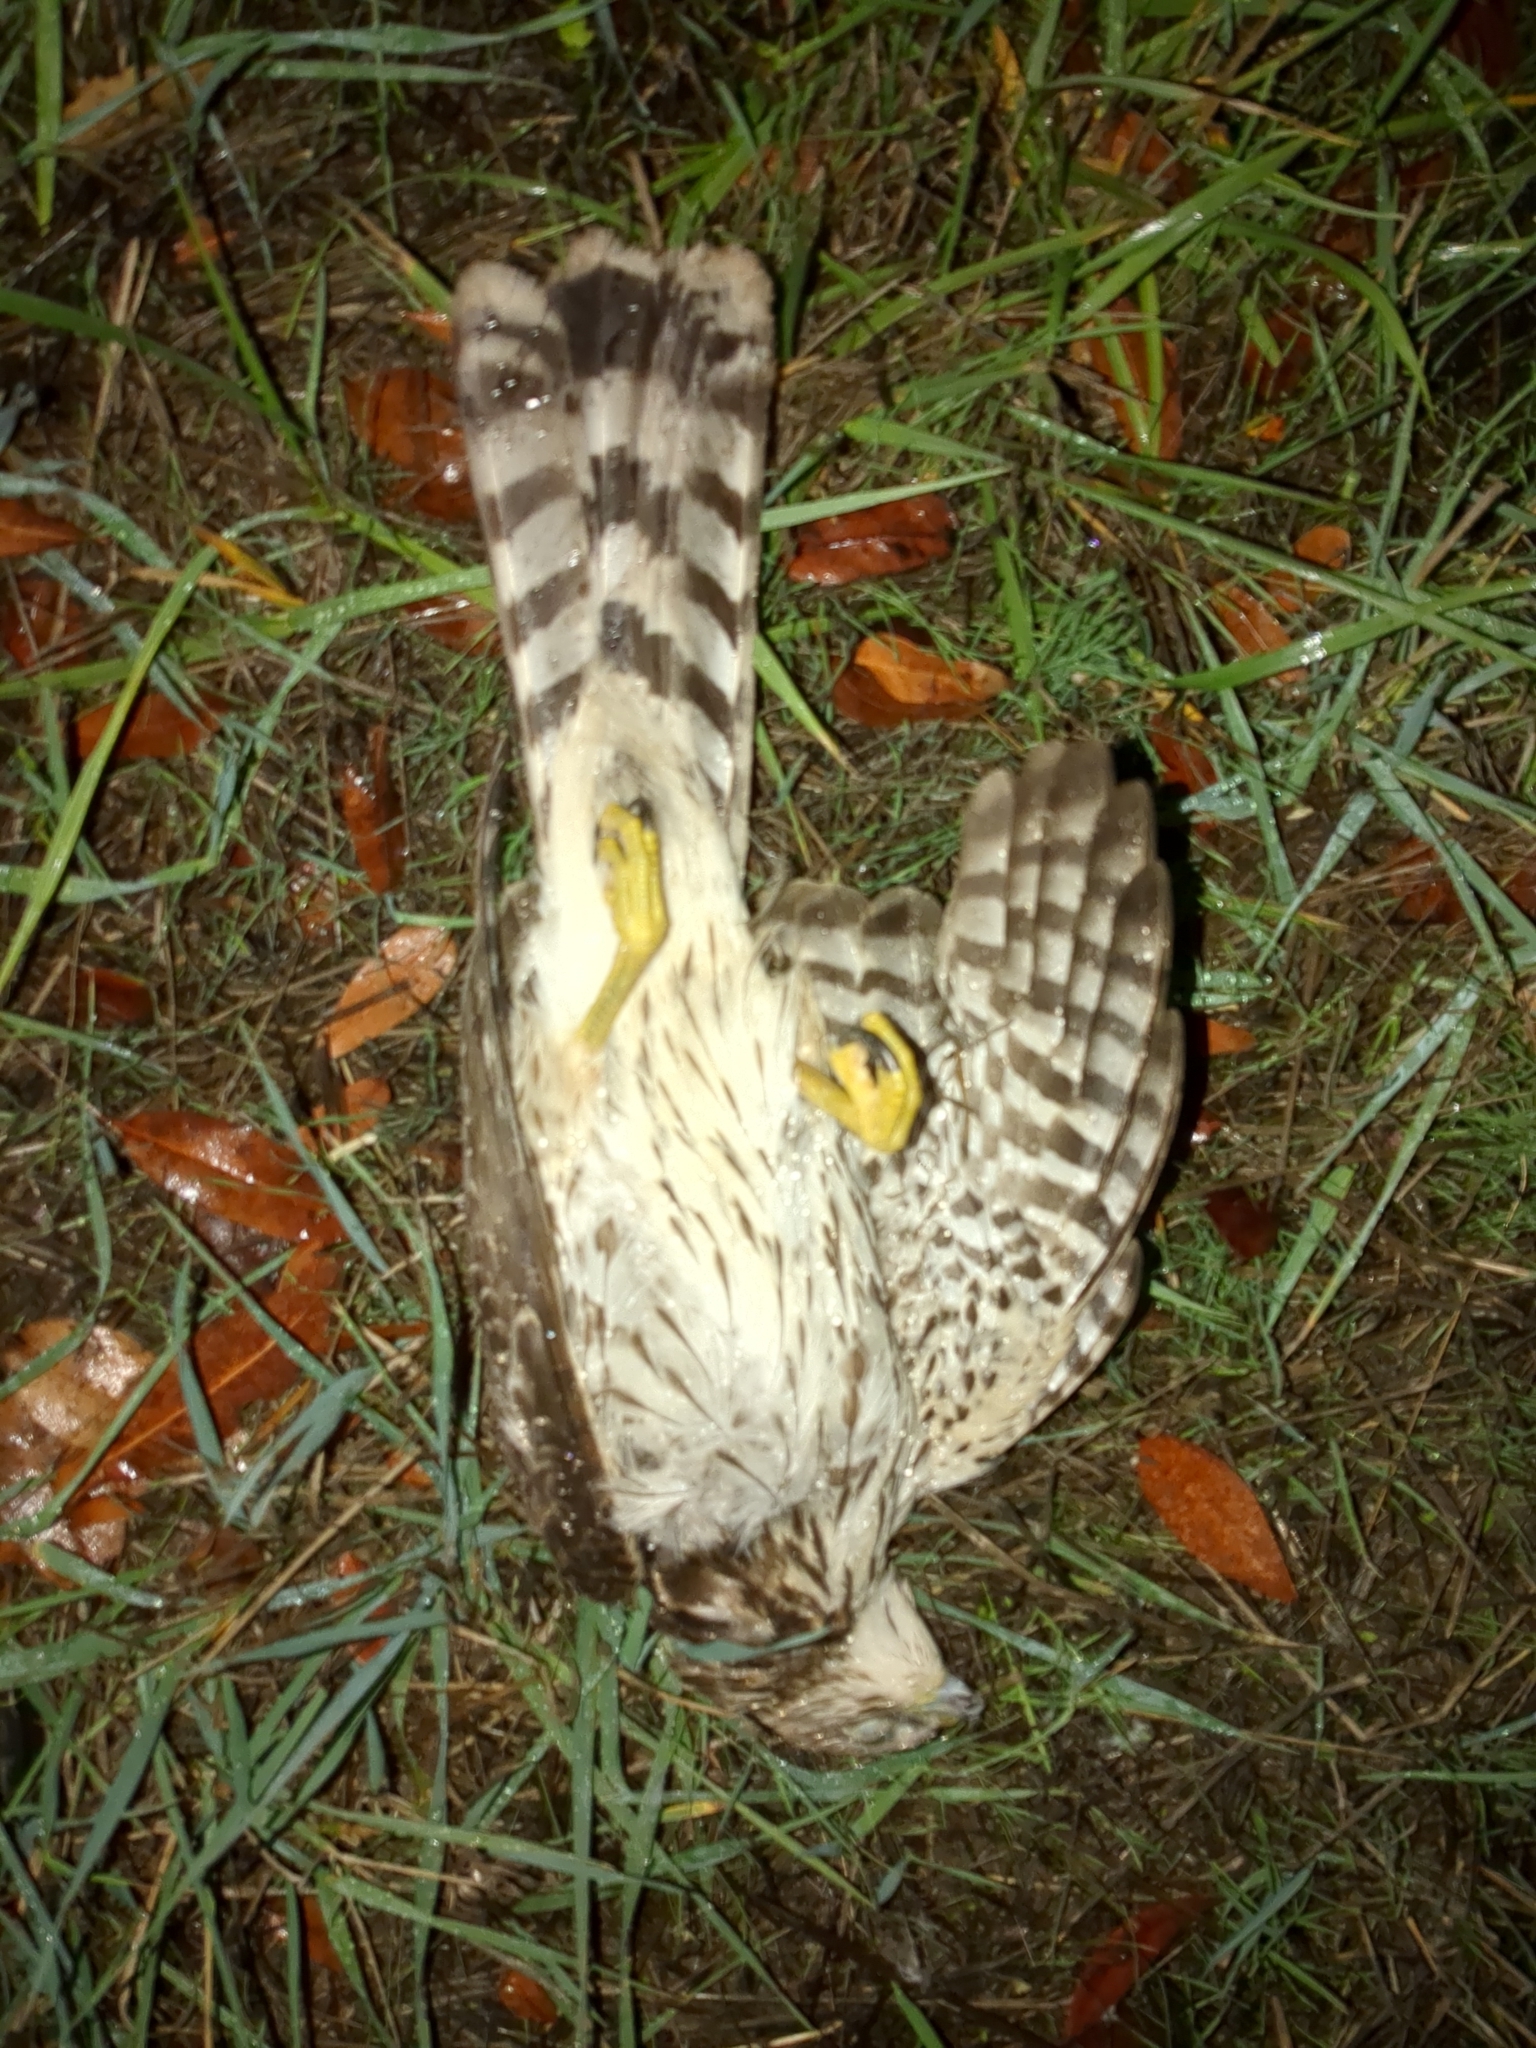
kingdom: Animalia
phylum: Chordata
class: Aves
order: Accipitriformes
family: Accipitridae
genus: Accipiter
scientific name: Accipiter cooperii
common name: Cooper's hawk
